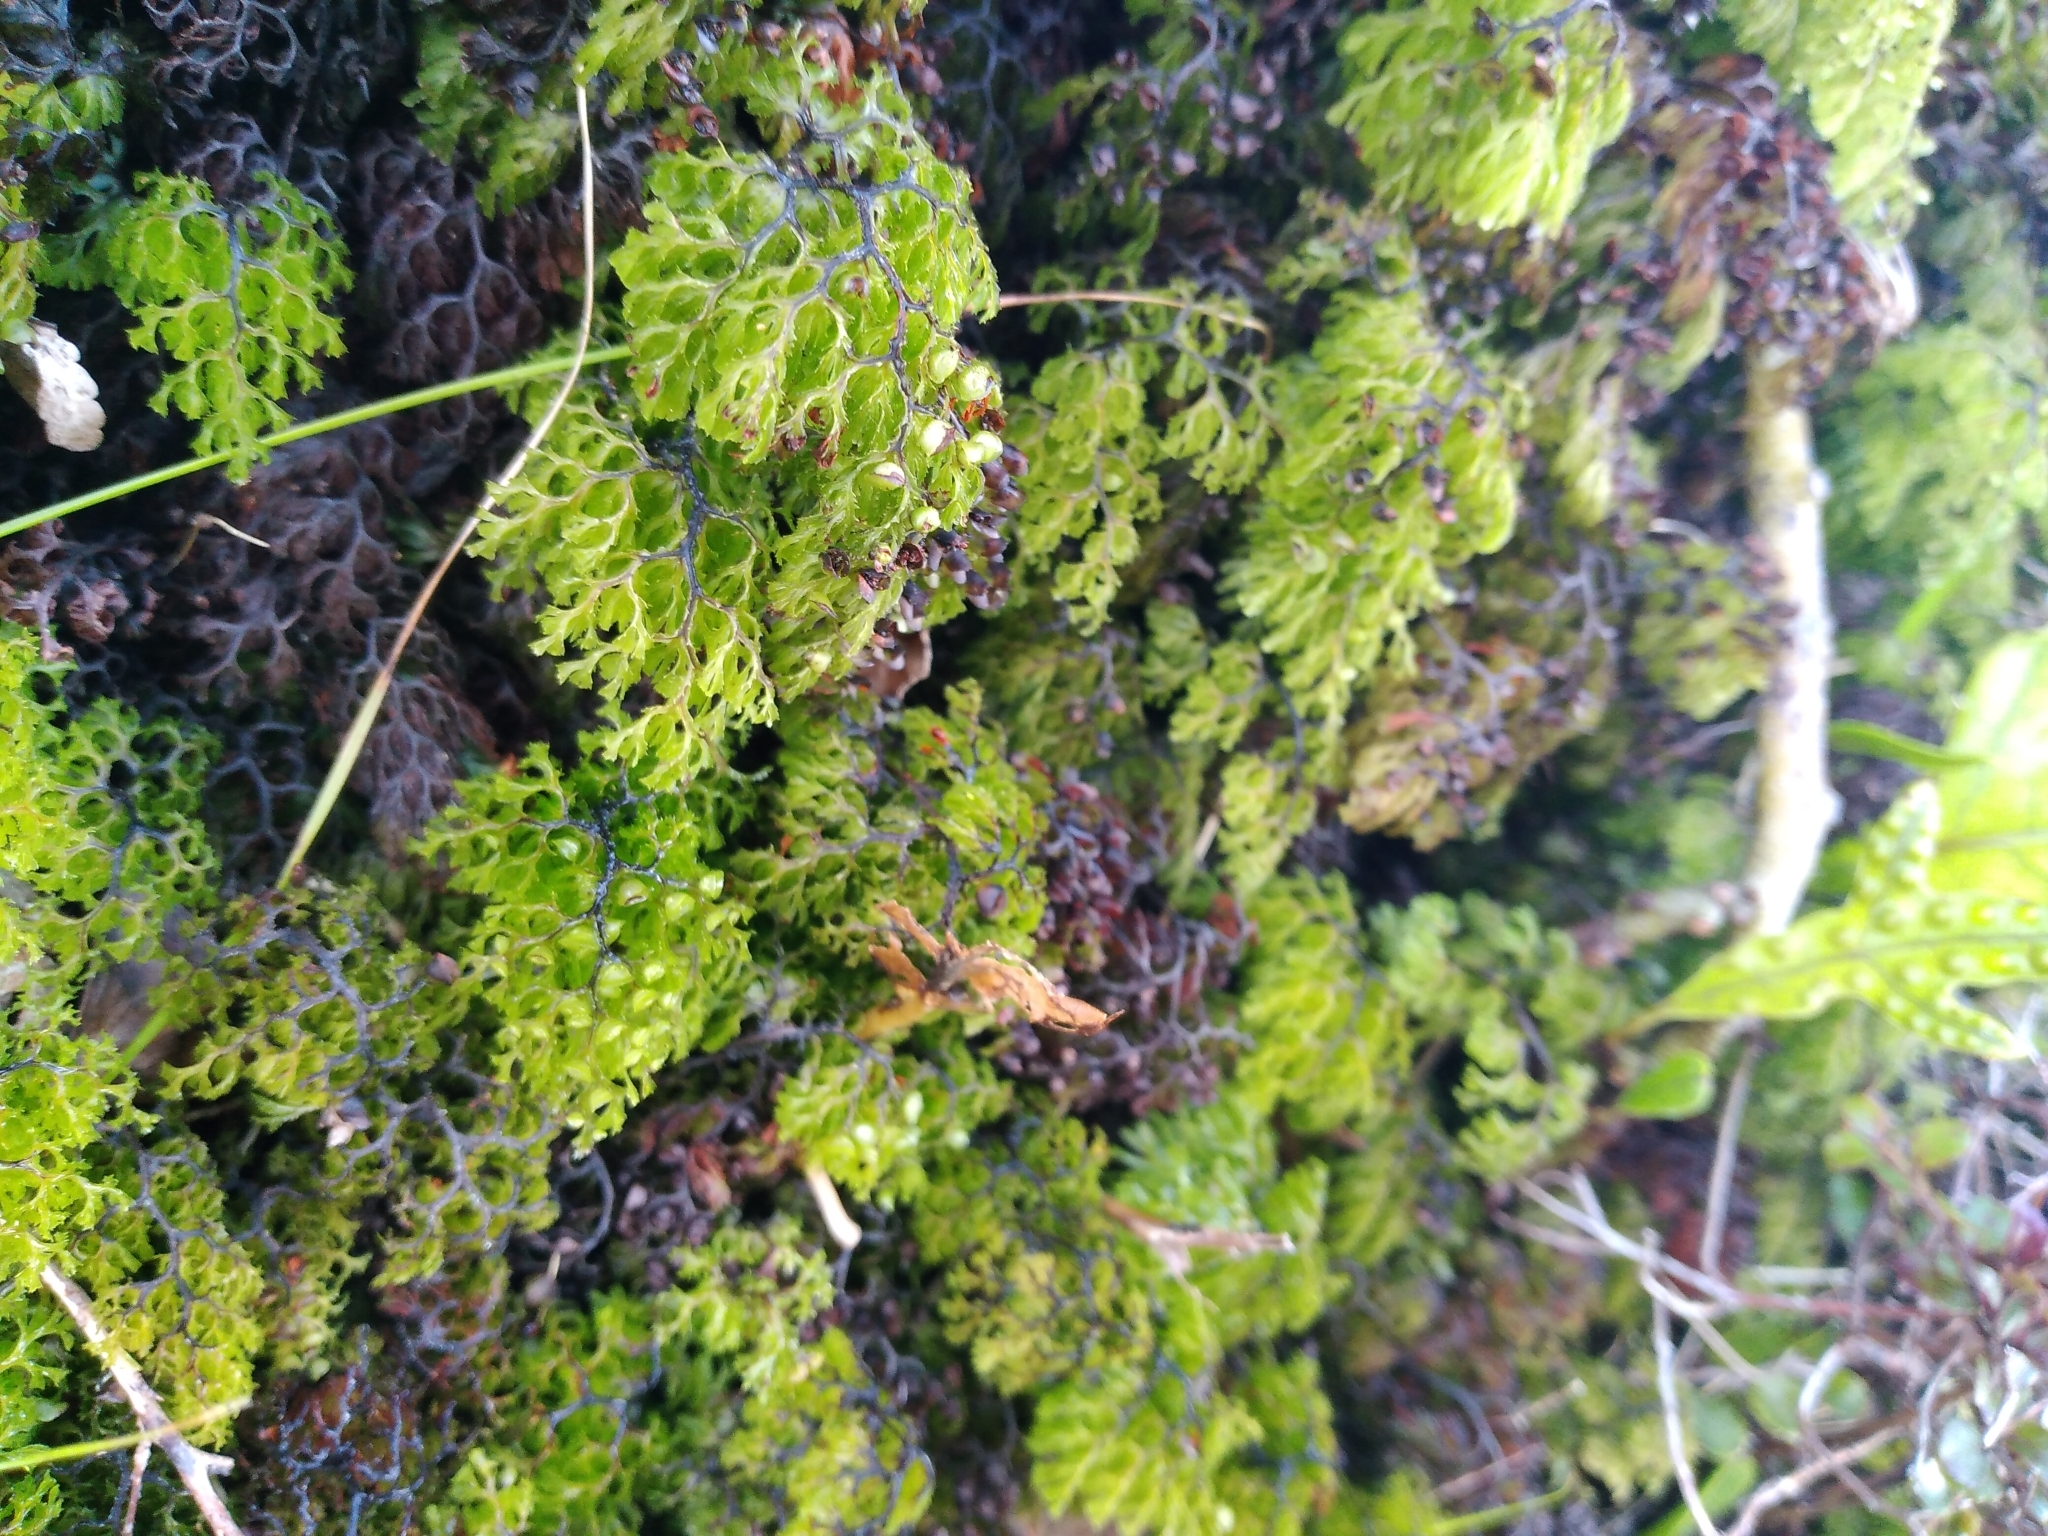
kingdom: Plantae
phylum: Tracheophyta
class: Polypodiopsida
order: Hymenophyllales
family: Hymenophyllaceae
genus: Hymenophyllum
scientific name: Hymenophyllum multifidum
